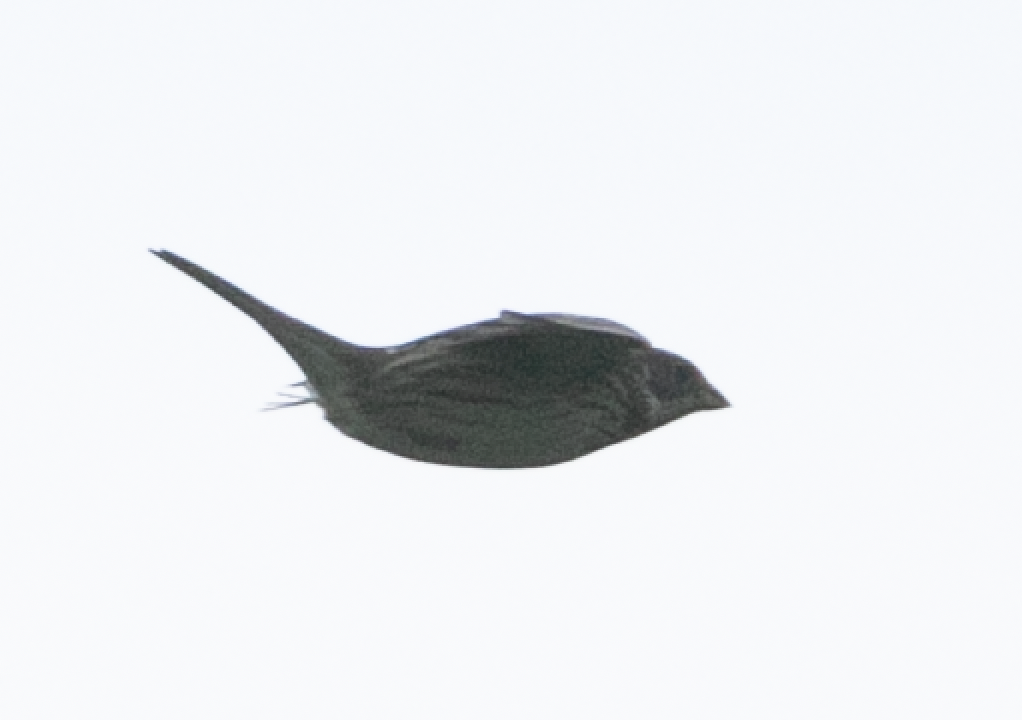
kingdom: Animalia
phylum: Chordata
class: Aves
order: Passeriformes
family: Emberizidae
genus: Emberiza
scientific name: Emberiza calandra
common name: Corn bunting
